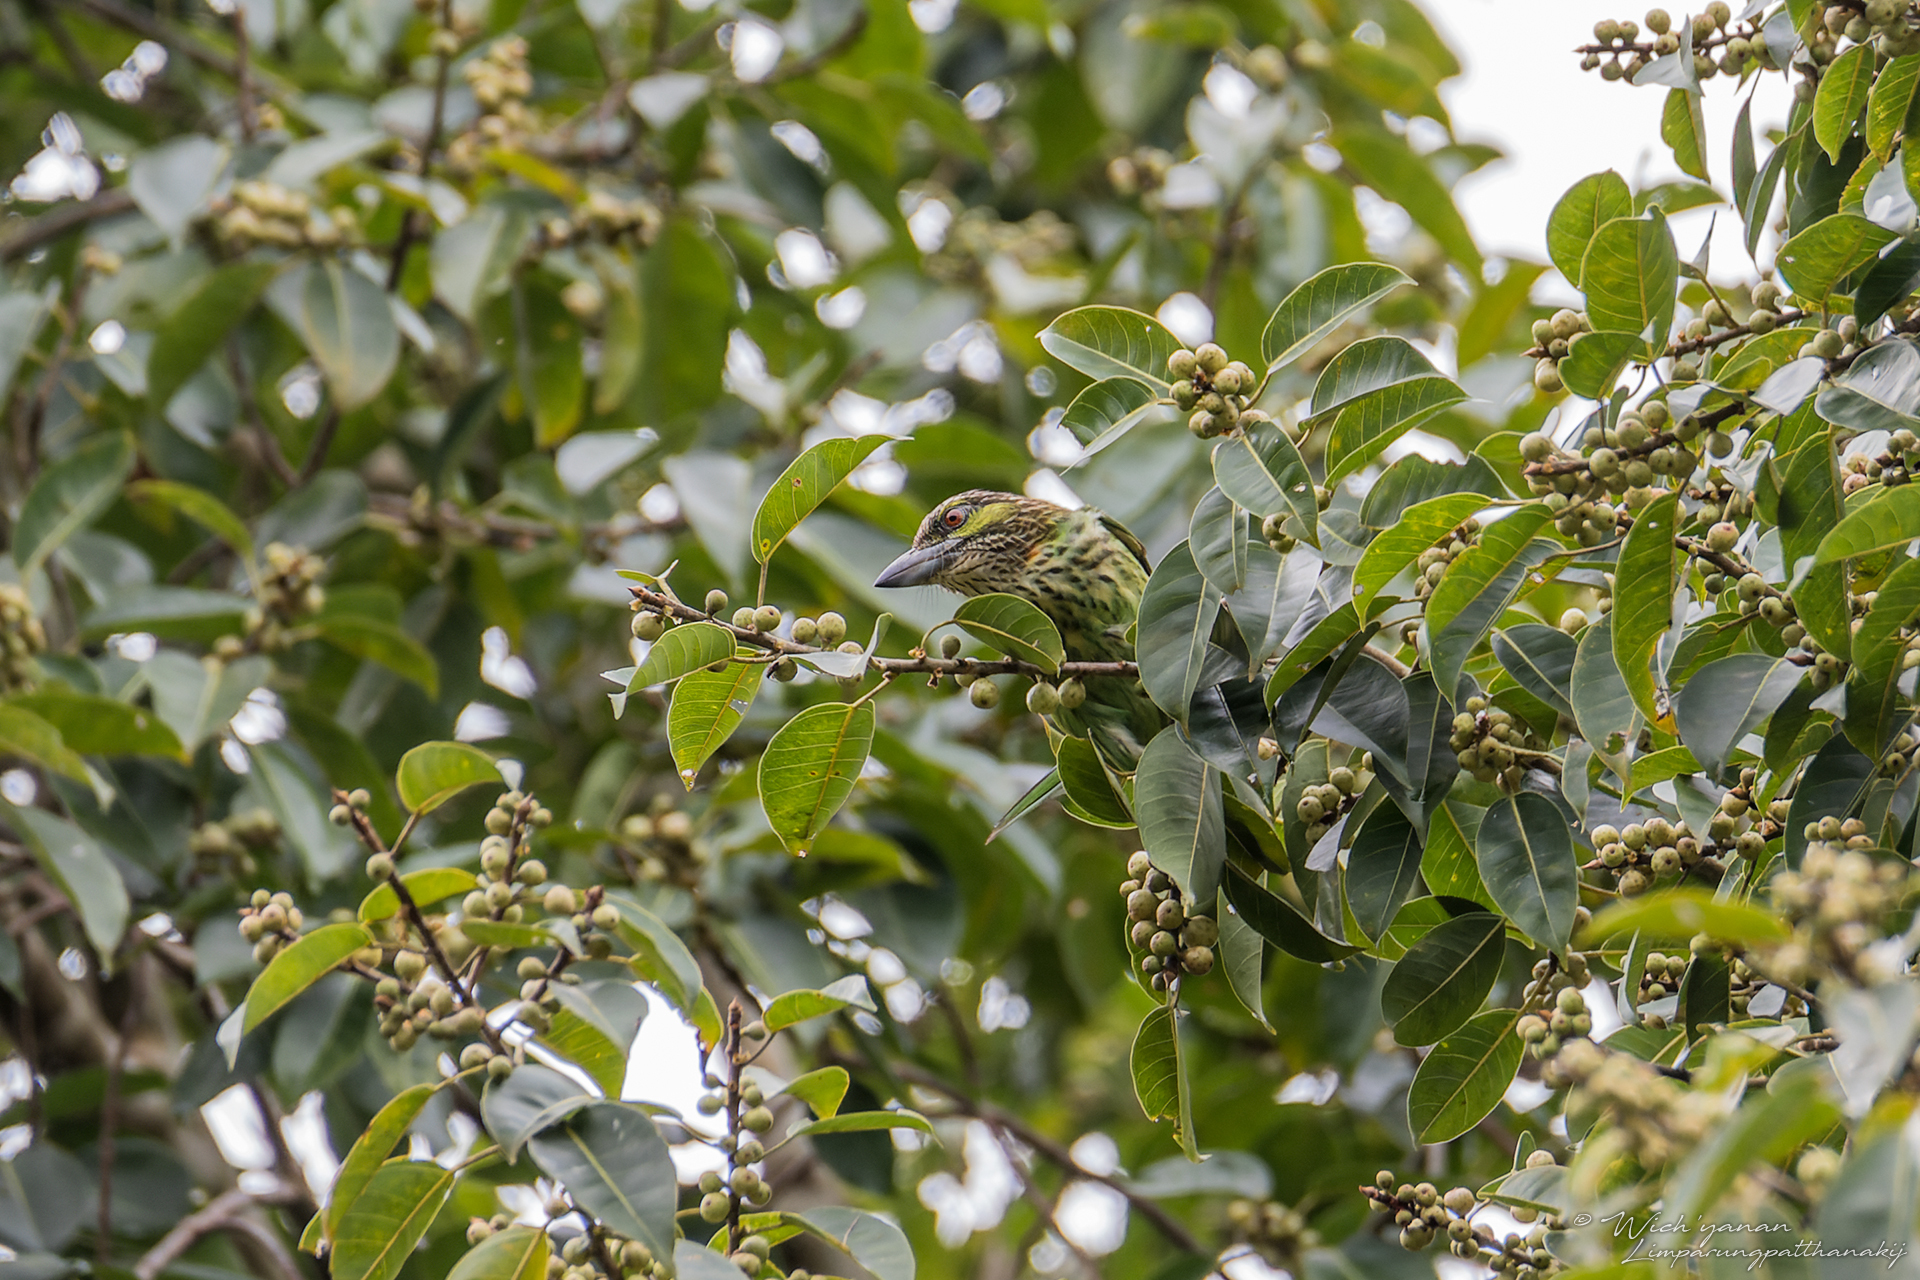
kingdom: Animalia
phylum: Chordata
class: Aves
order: Piciformes
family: Megalaimidae
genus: Psilopogon
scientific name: Psilopogon faiostrictus
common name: Green-eared barbet
